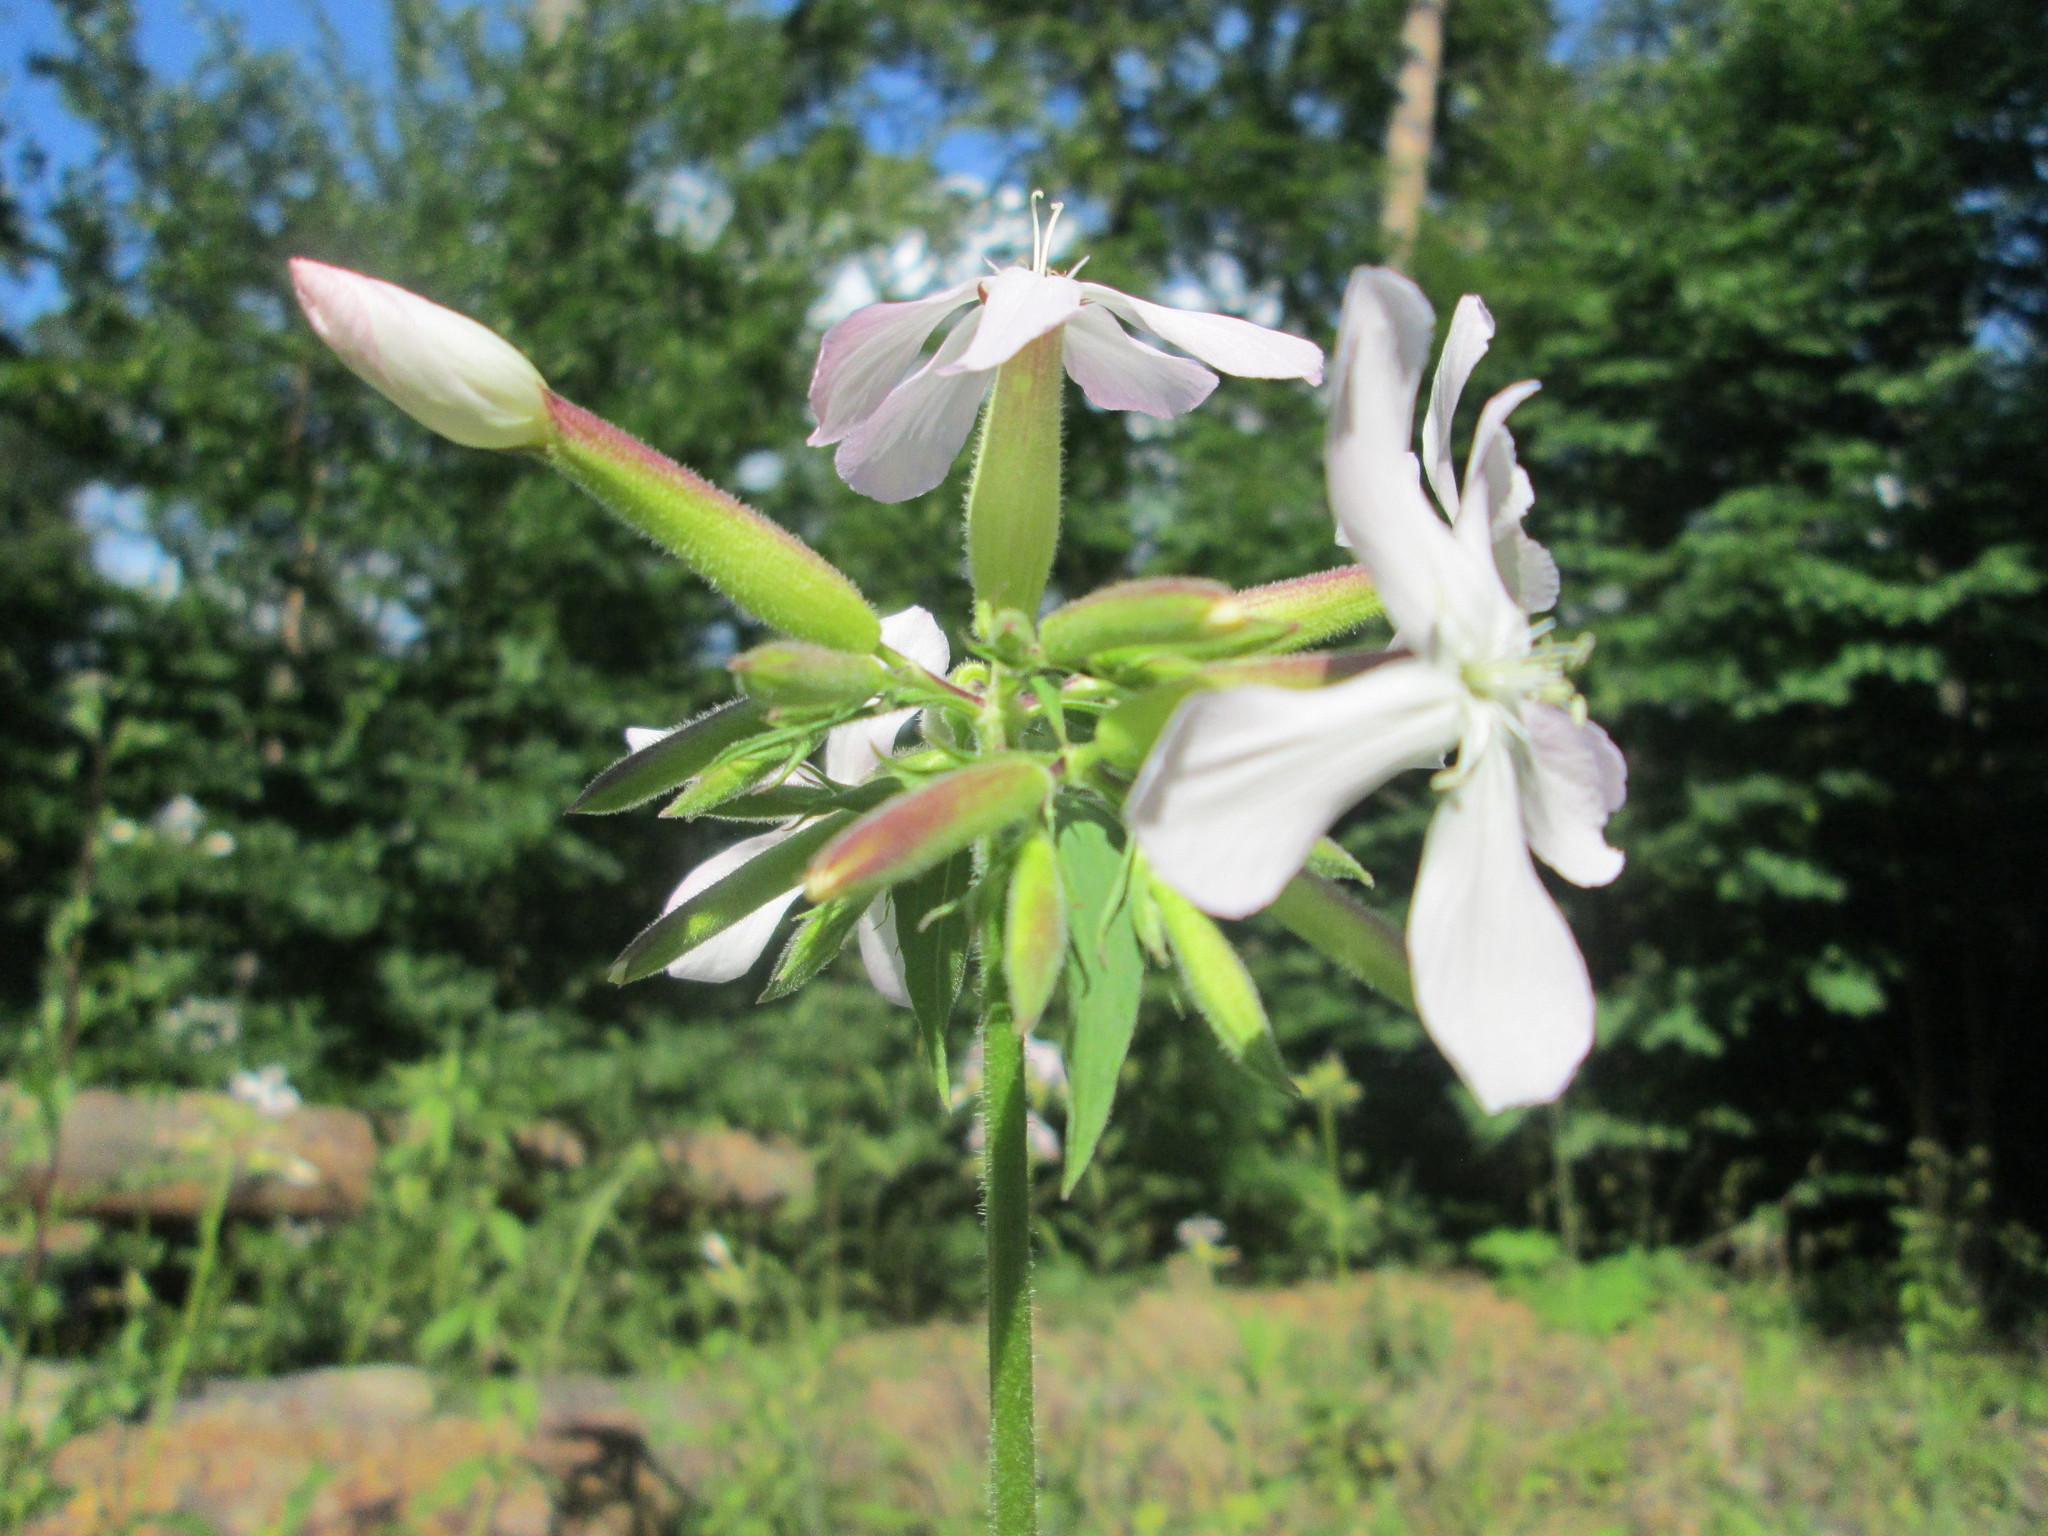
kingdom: Plantae
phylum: Tracheophyta
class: Magnoliopsida
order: Caryophyllales
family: Caryophyllaceae
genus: Saponaria
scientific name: Saponaria officinalis
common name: Soapwort
